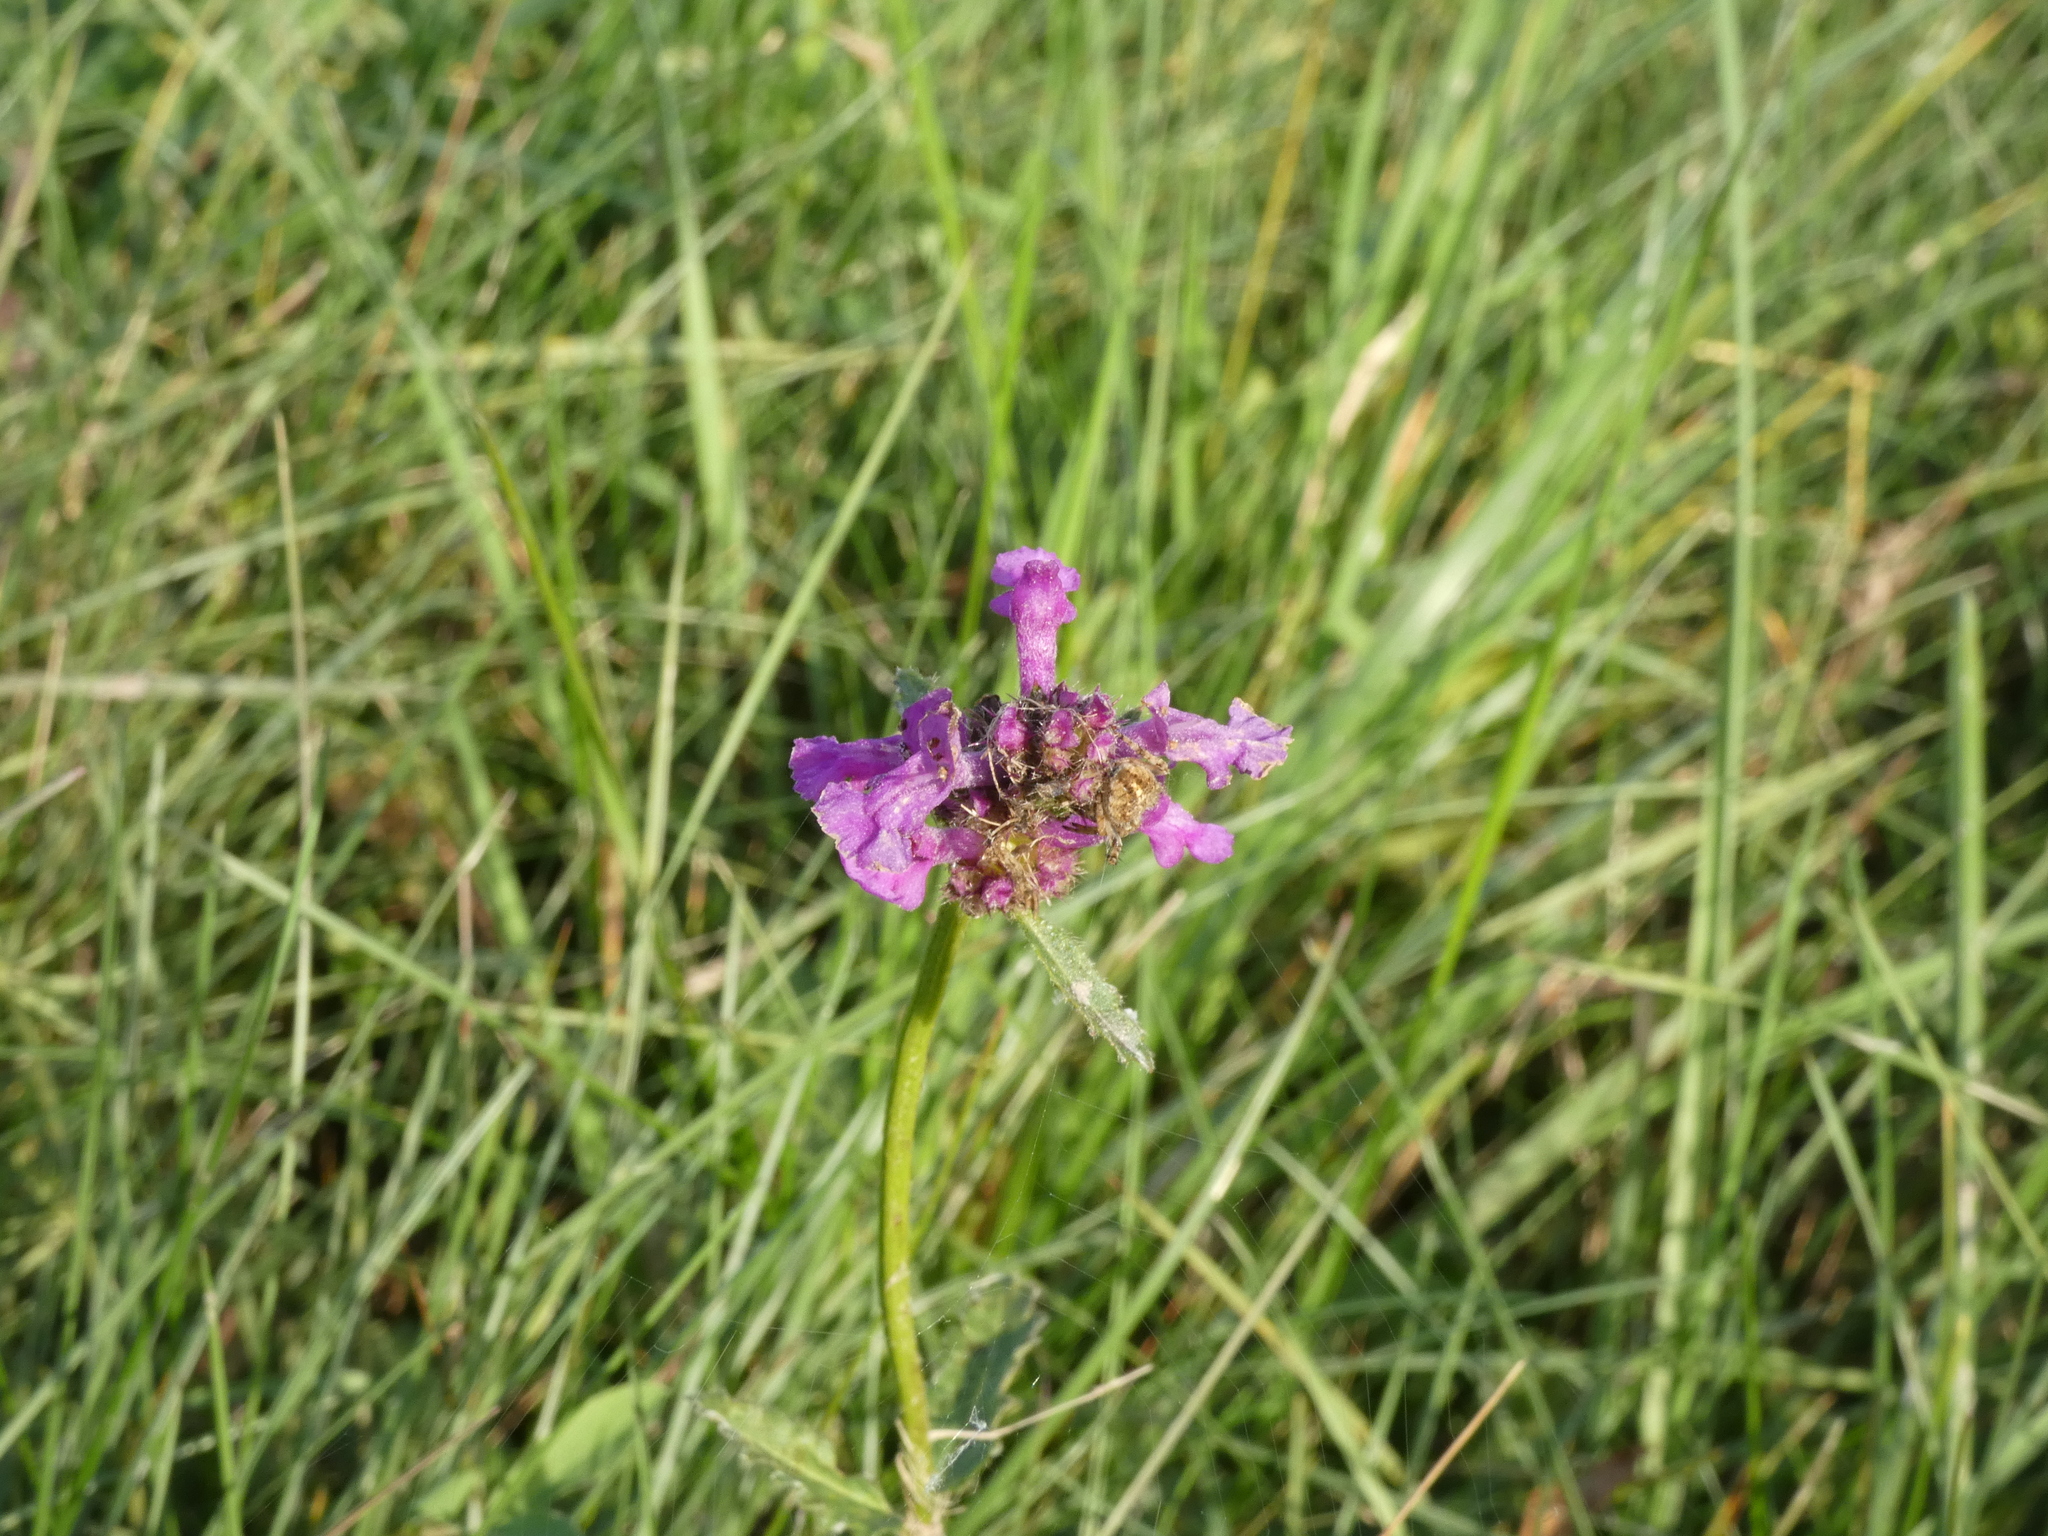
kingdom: Plantae
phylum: Tracheophyta
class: Magnoliopsida
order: Lamiales
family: Lamiaceae
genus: Betonica
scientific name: Betonica officinalis
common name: Bishop's-wort
